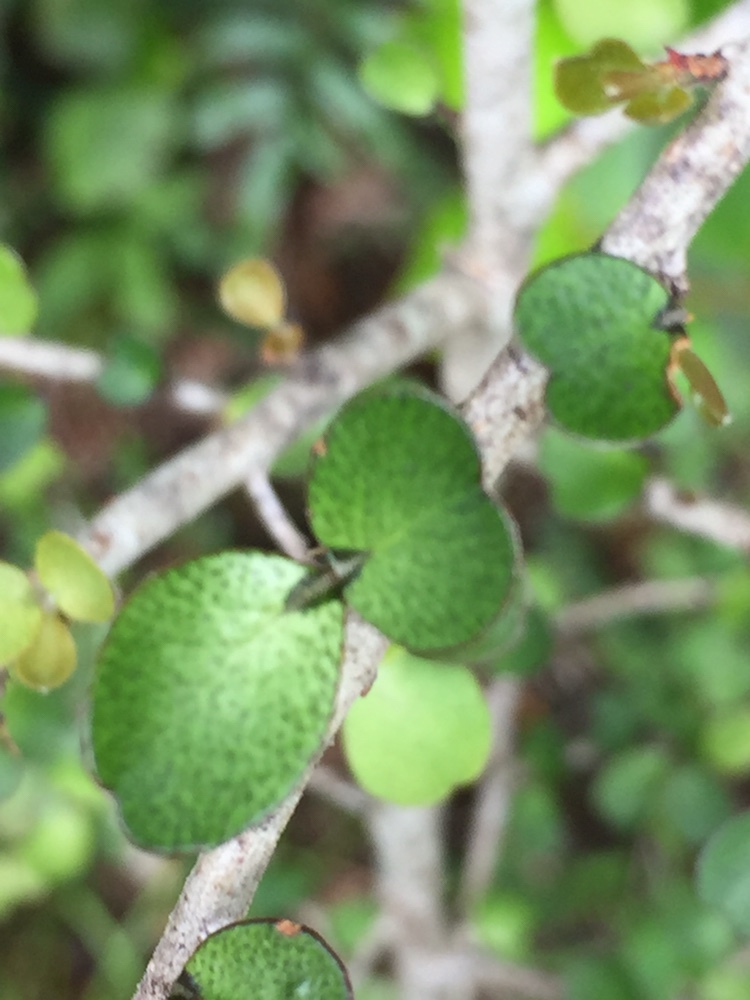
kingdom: Plantae
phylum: Tracheophyta
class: Magnoliopsida
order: Ericales
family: Primulaceae
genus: Myrsine
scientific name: Myrsine divaricata
